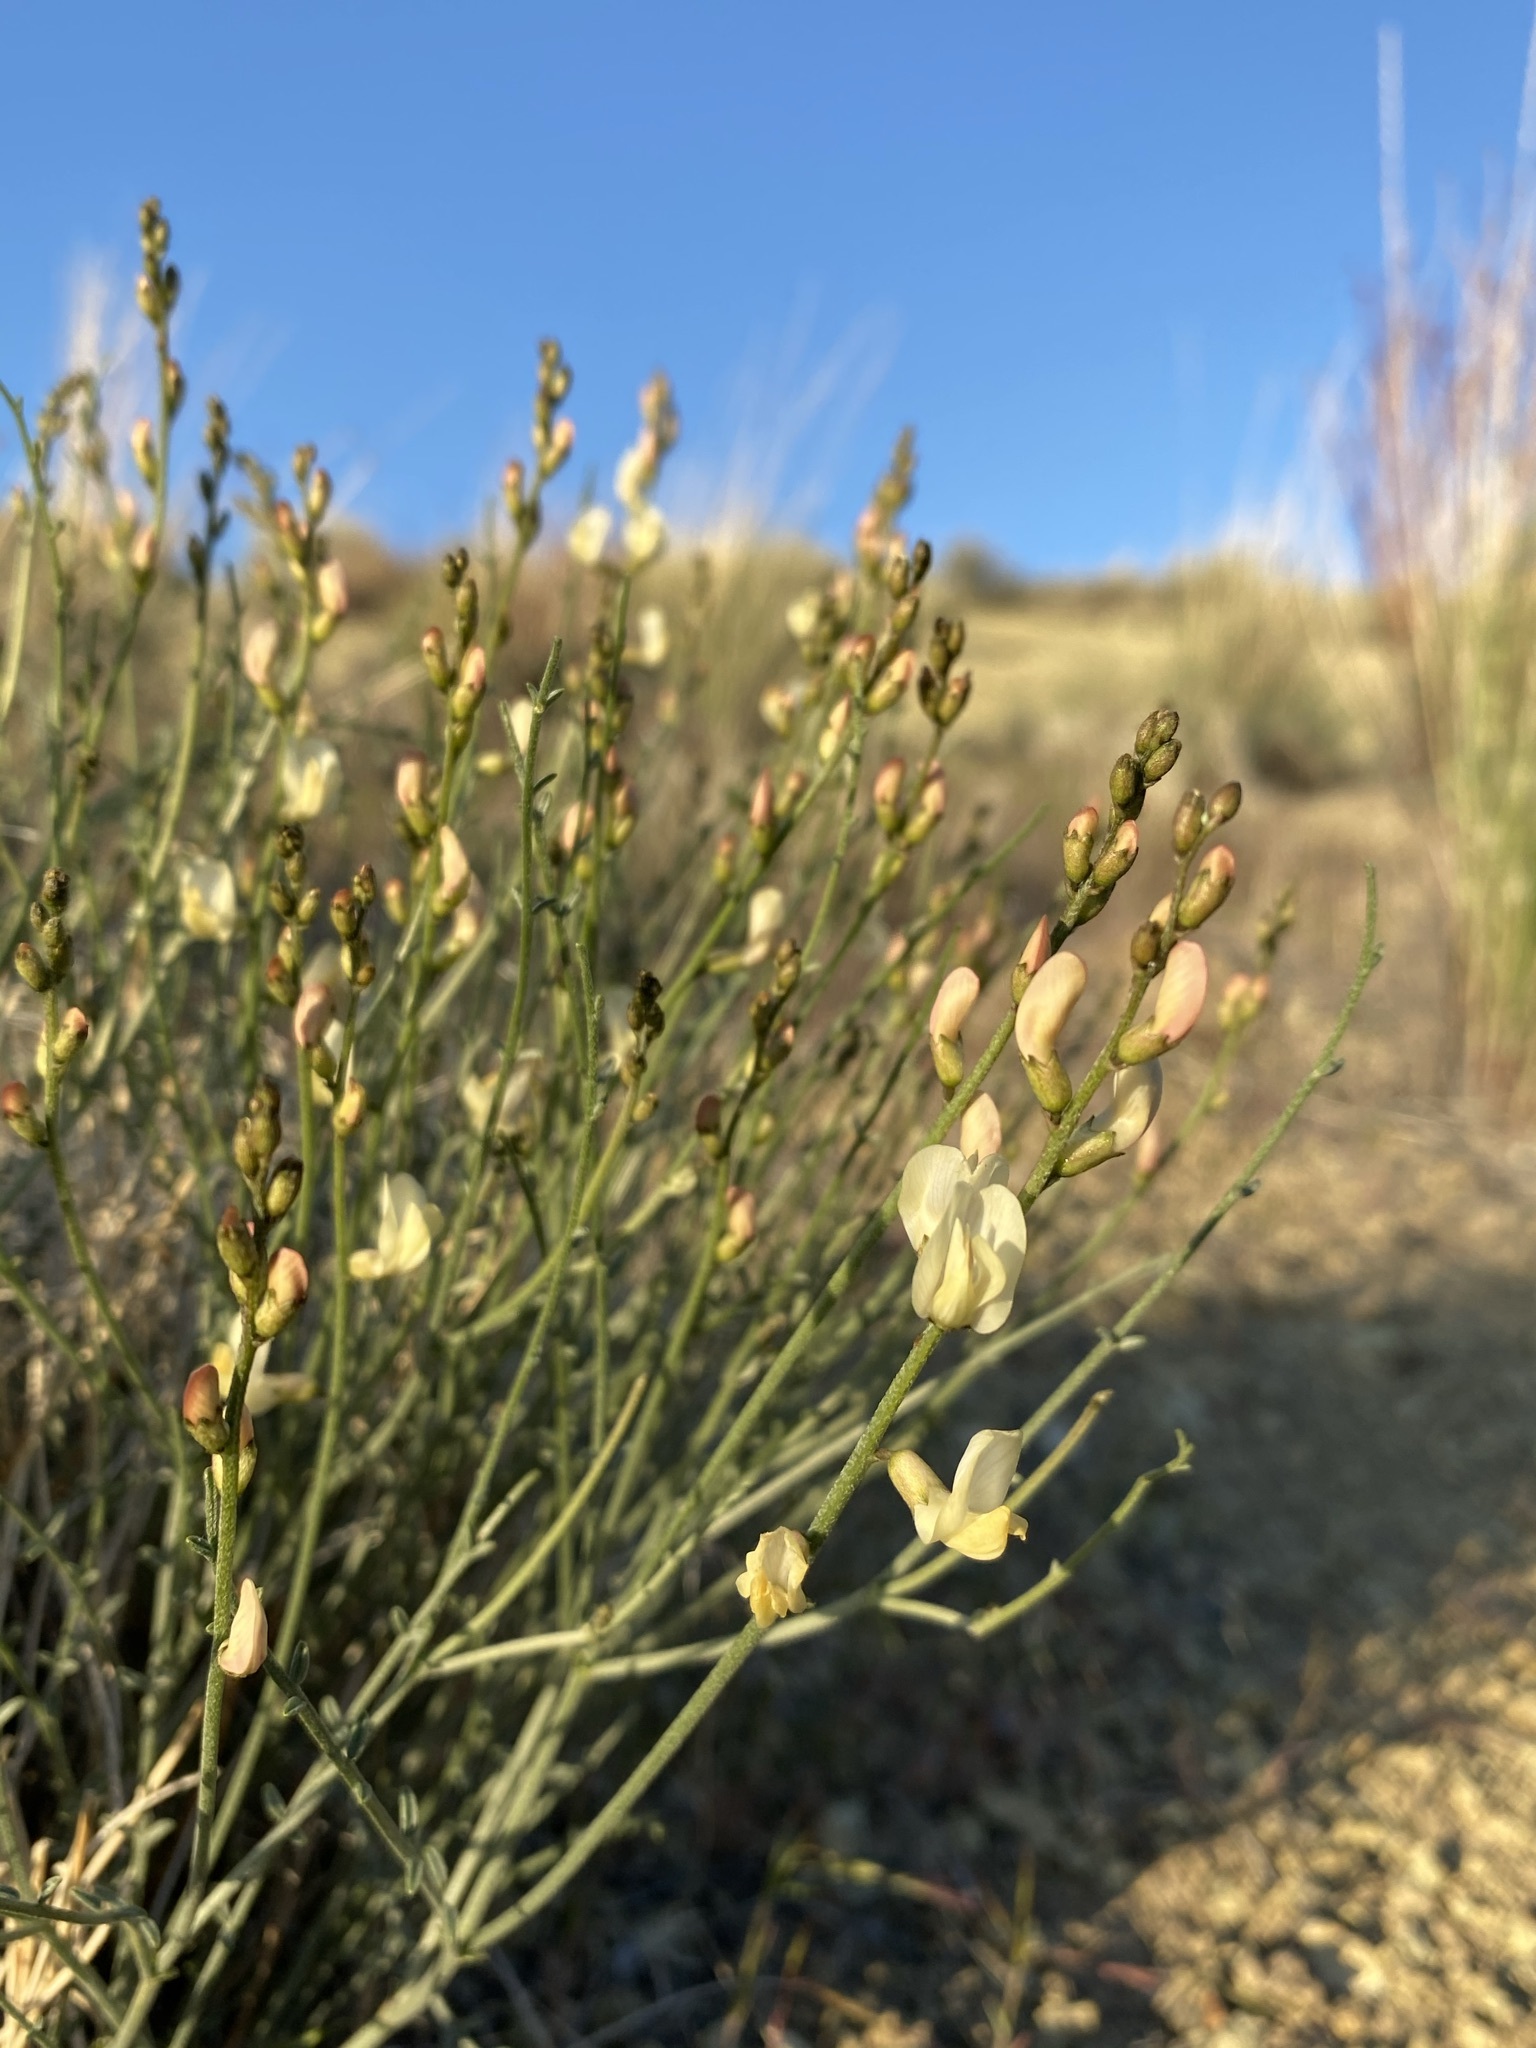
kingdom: Plantae
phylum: Tracheophyta
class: Magnoliopsida
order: Fabales
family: Fabaceae
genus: Astragalus
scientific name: Astragalus sterilis
